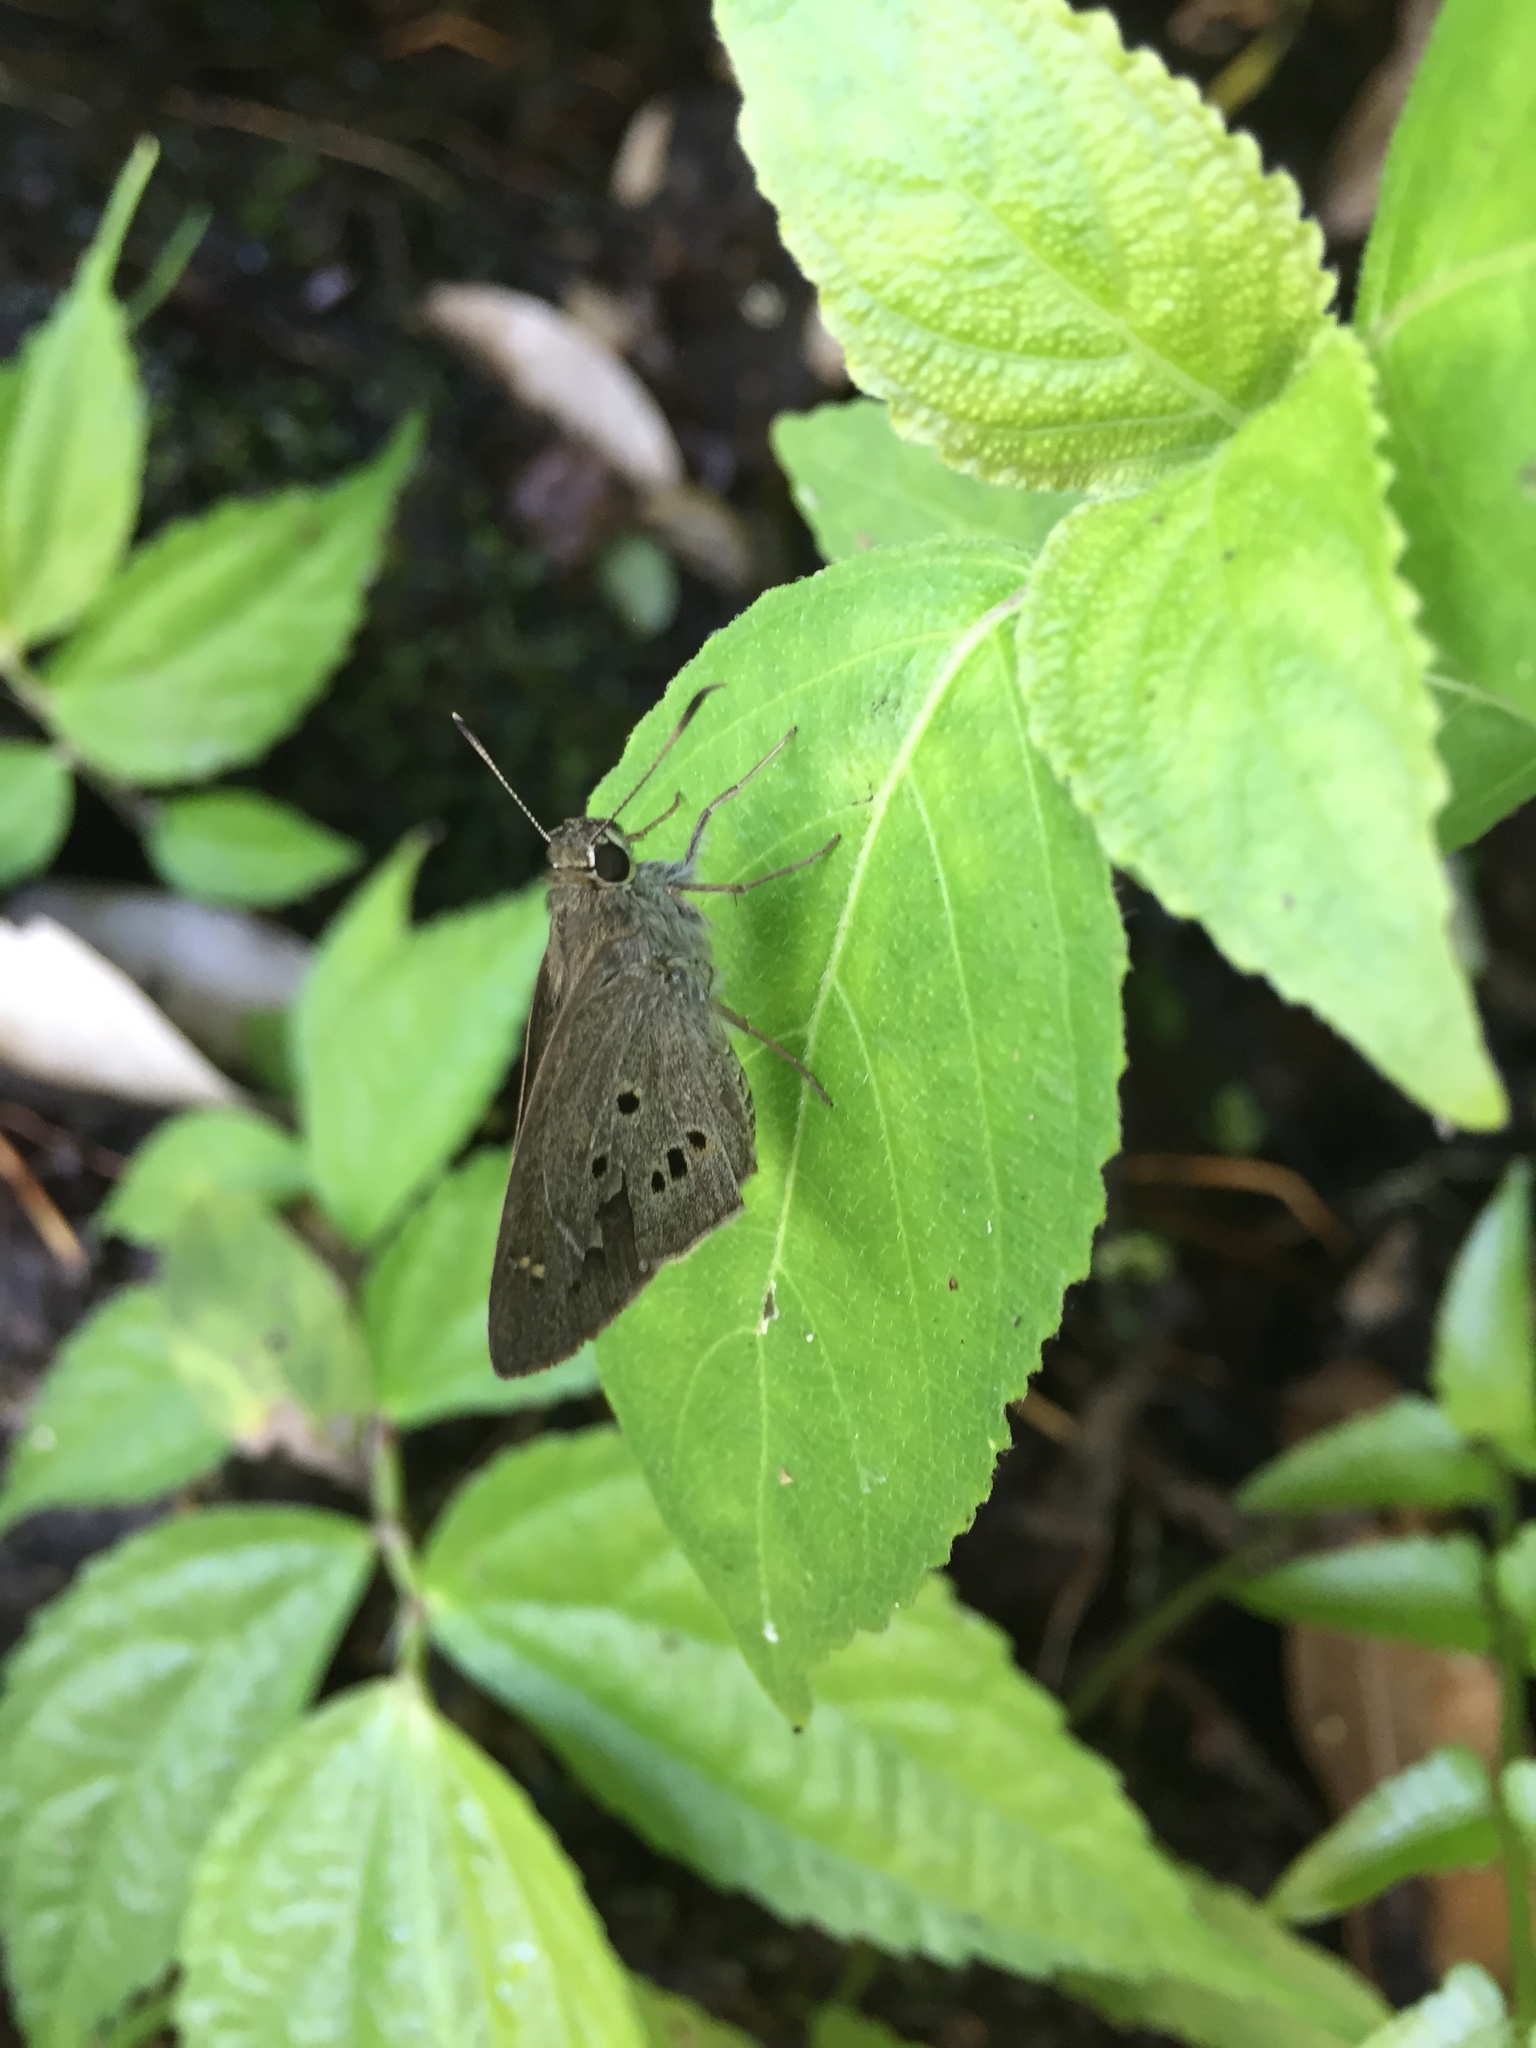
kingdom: Animalia
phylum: Arthropoda
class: Insecta
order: Lepidoptera
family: Hesperiidae
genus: Suastus
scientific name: Suastus gremius
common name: Indian palm bob
